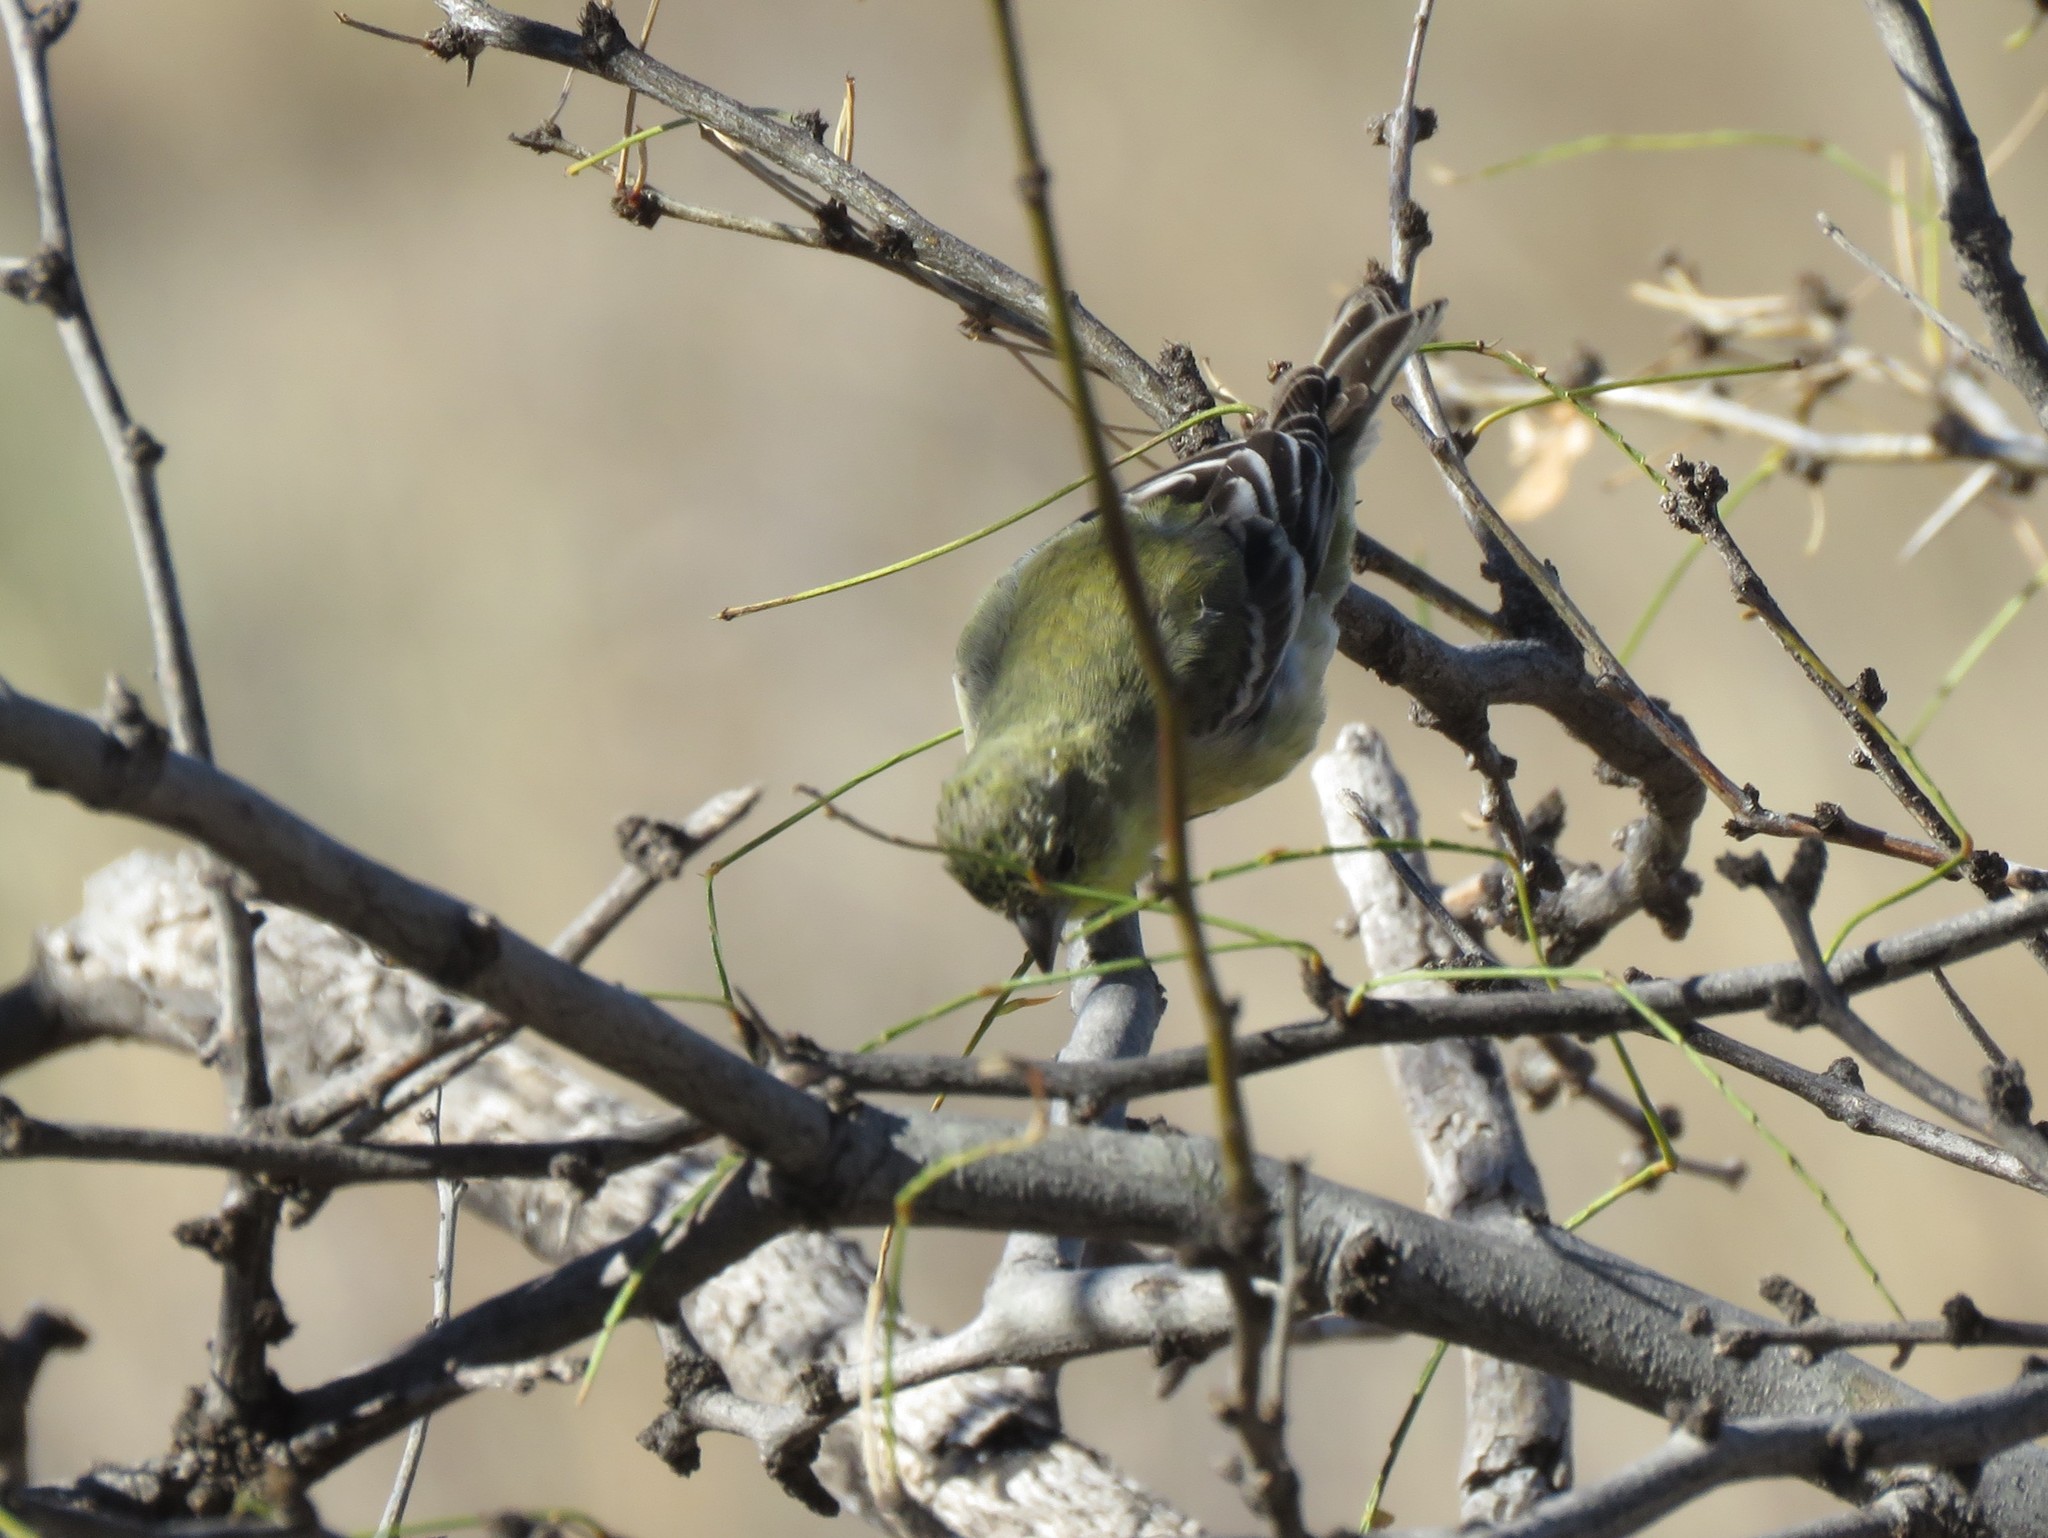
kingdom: Animalia
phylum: Chordata
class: Aves
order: Passeriformes
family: Fringillidae
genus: Spinus
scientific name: Spinus psaltria
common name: Lesser goldfinch
